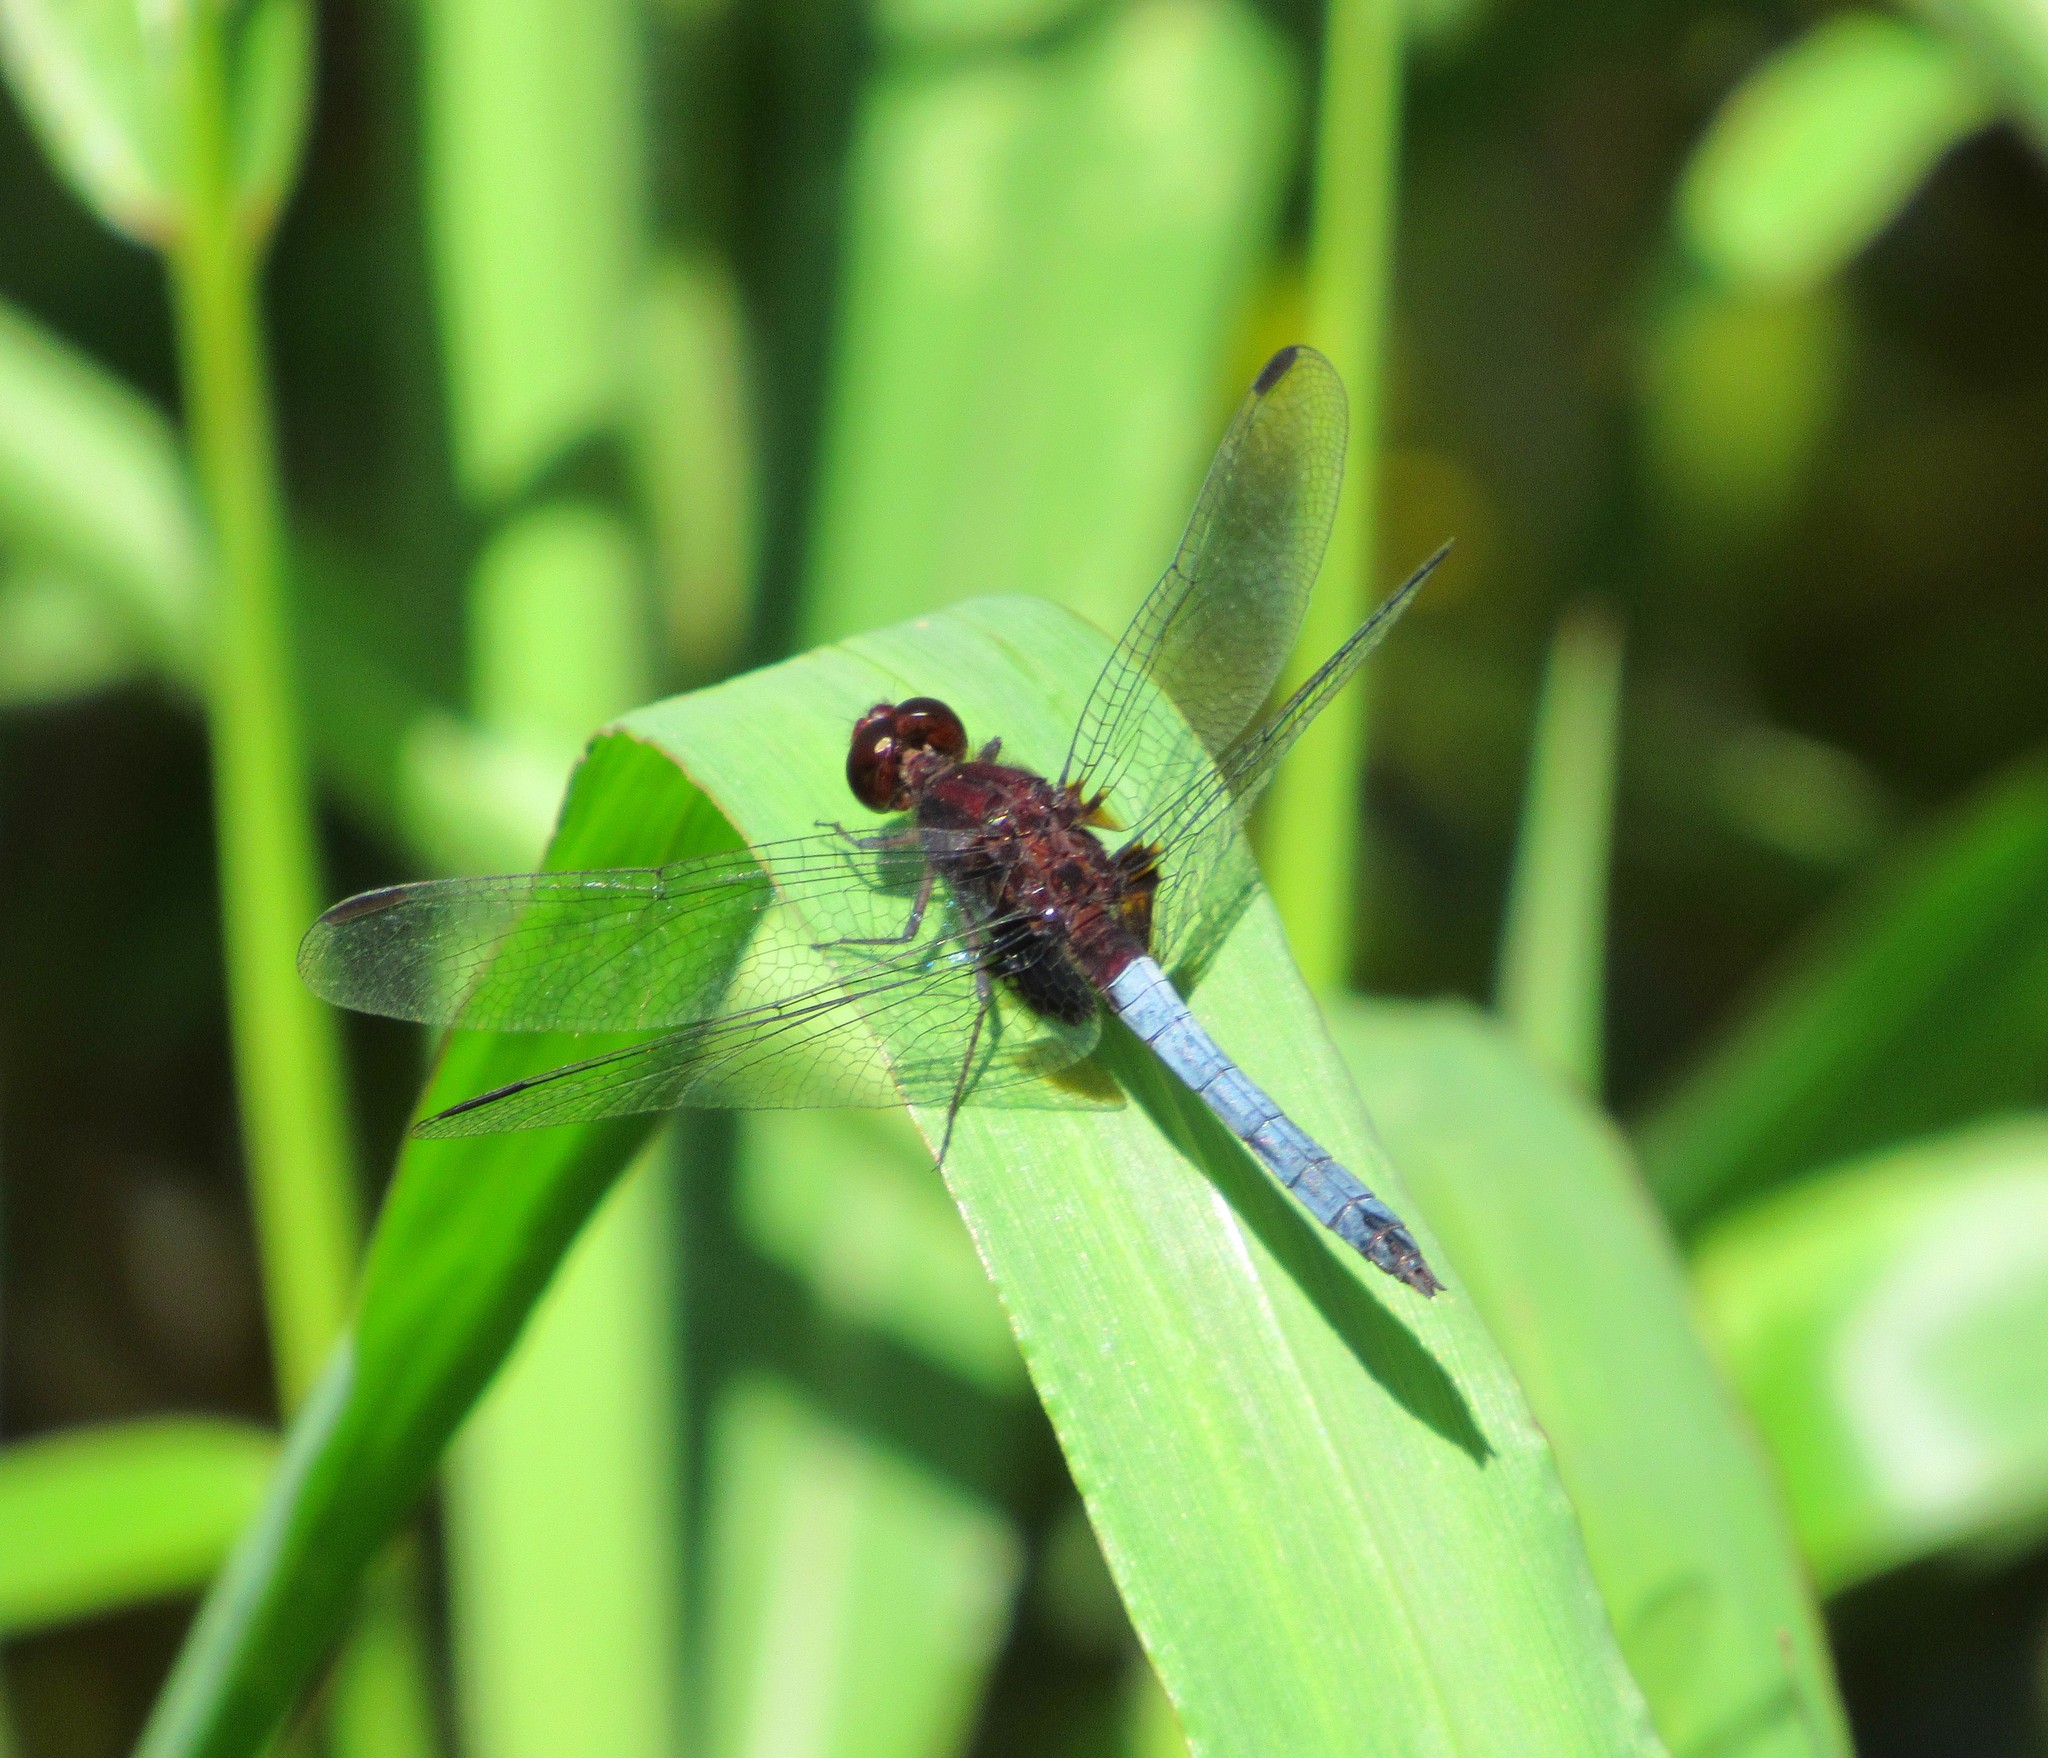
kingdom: Animalia
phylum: Arthropoda
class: Insecta
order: Odonata
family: Libellulidae
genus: Erythrodiplax
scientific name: Erythrodiplax fusca
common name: Red-faced dragonlet
